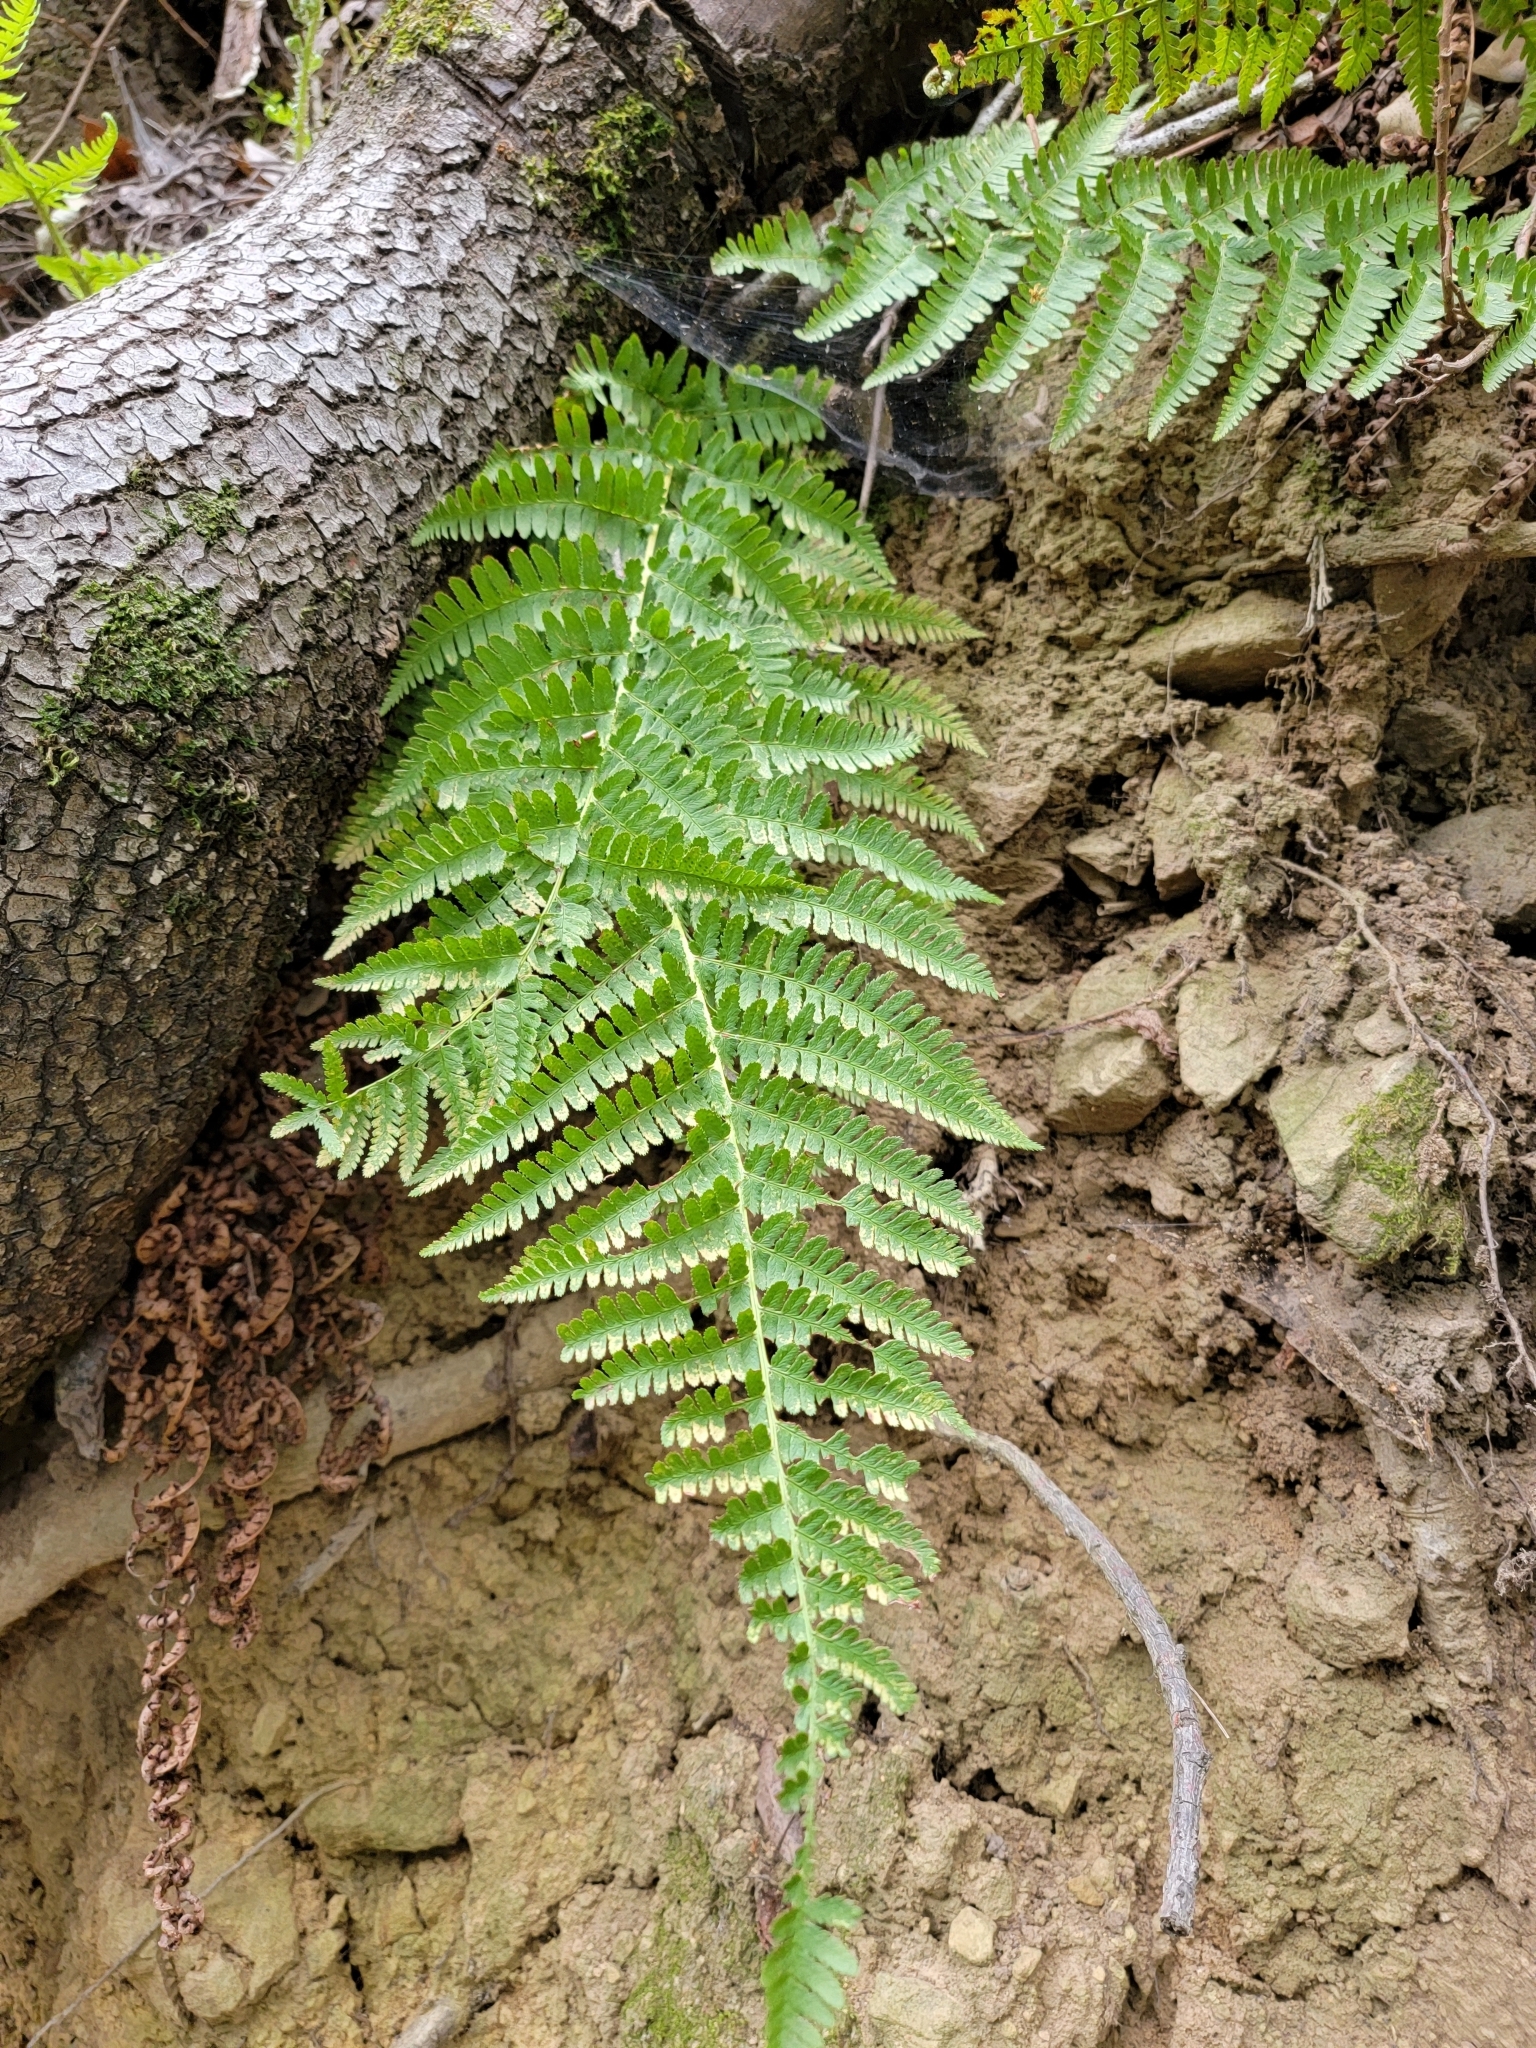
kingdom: Plantae
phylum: Tracheophyta
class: Polypodiopsida
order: Polypodiales
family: Dryopteridaceae
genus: Dryopteris
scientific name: Dryopteris arguta
